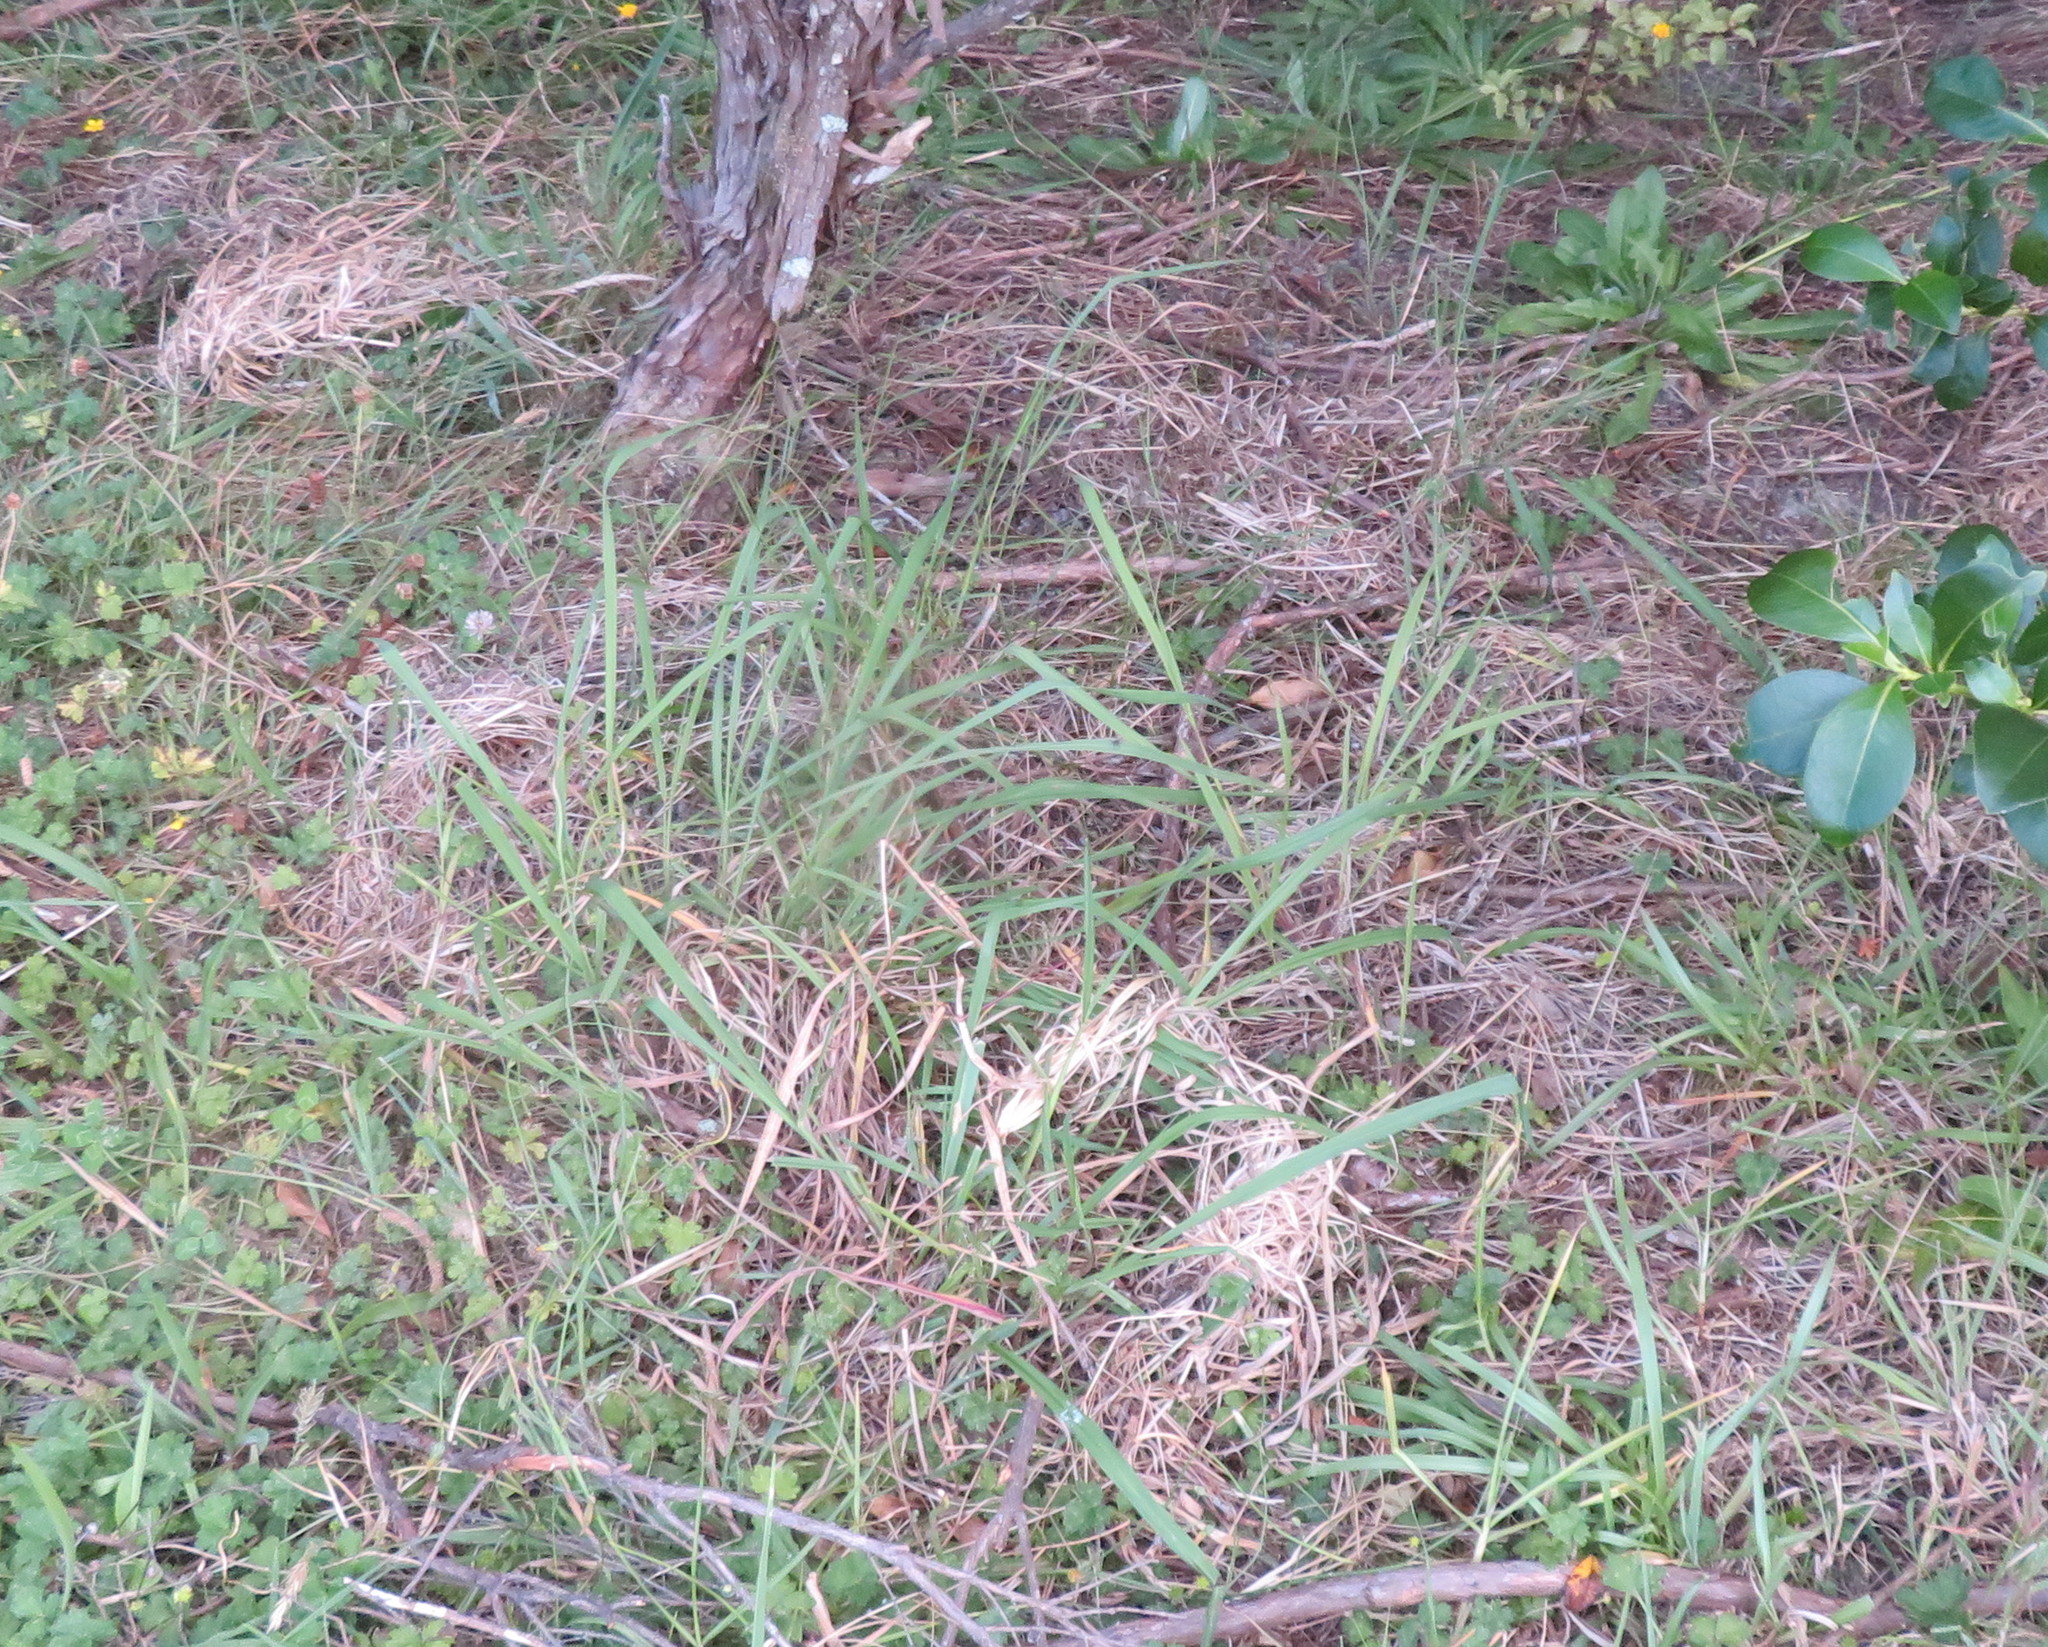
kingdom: Plantae
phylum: Tracheophyta
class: Liliopsida
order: Poales
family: Poaceae
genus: Paspalum
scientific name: Paspalum dilatatum
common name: Dallisgrass
